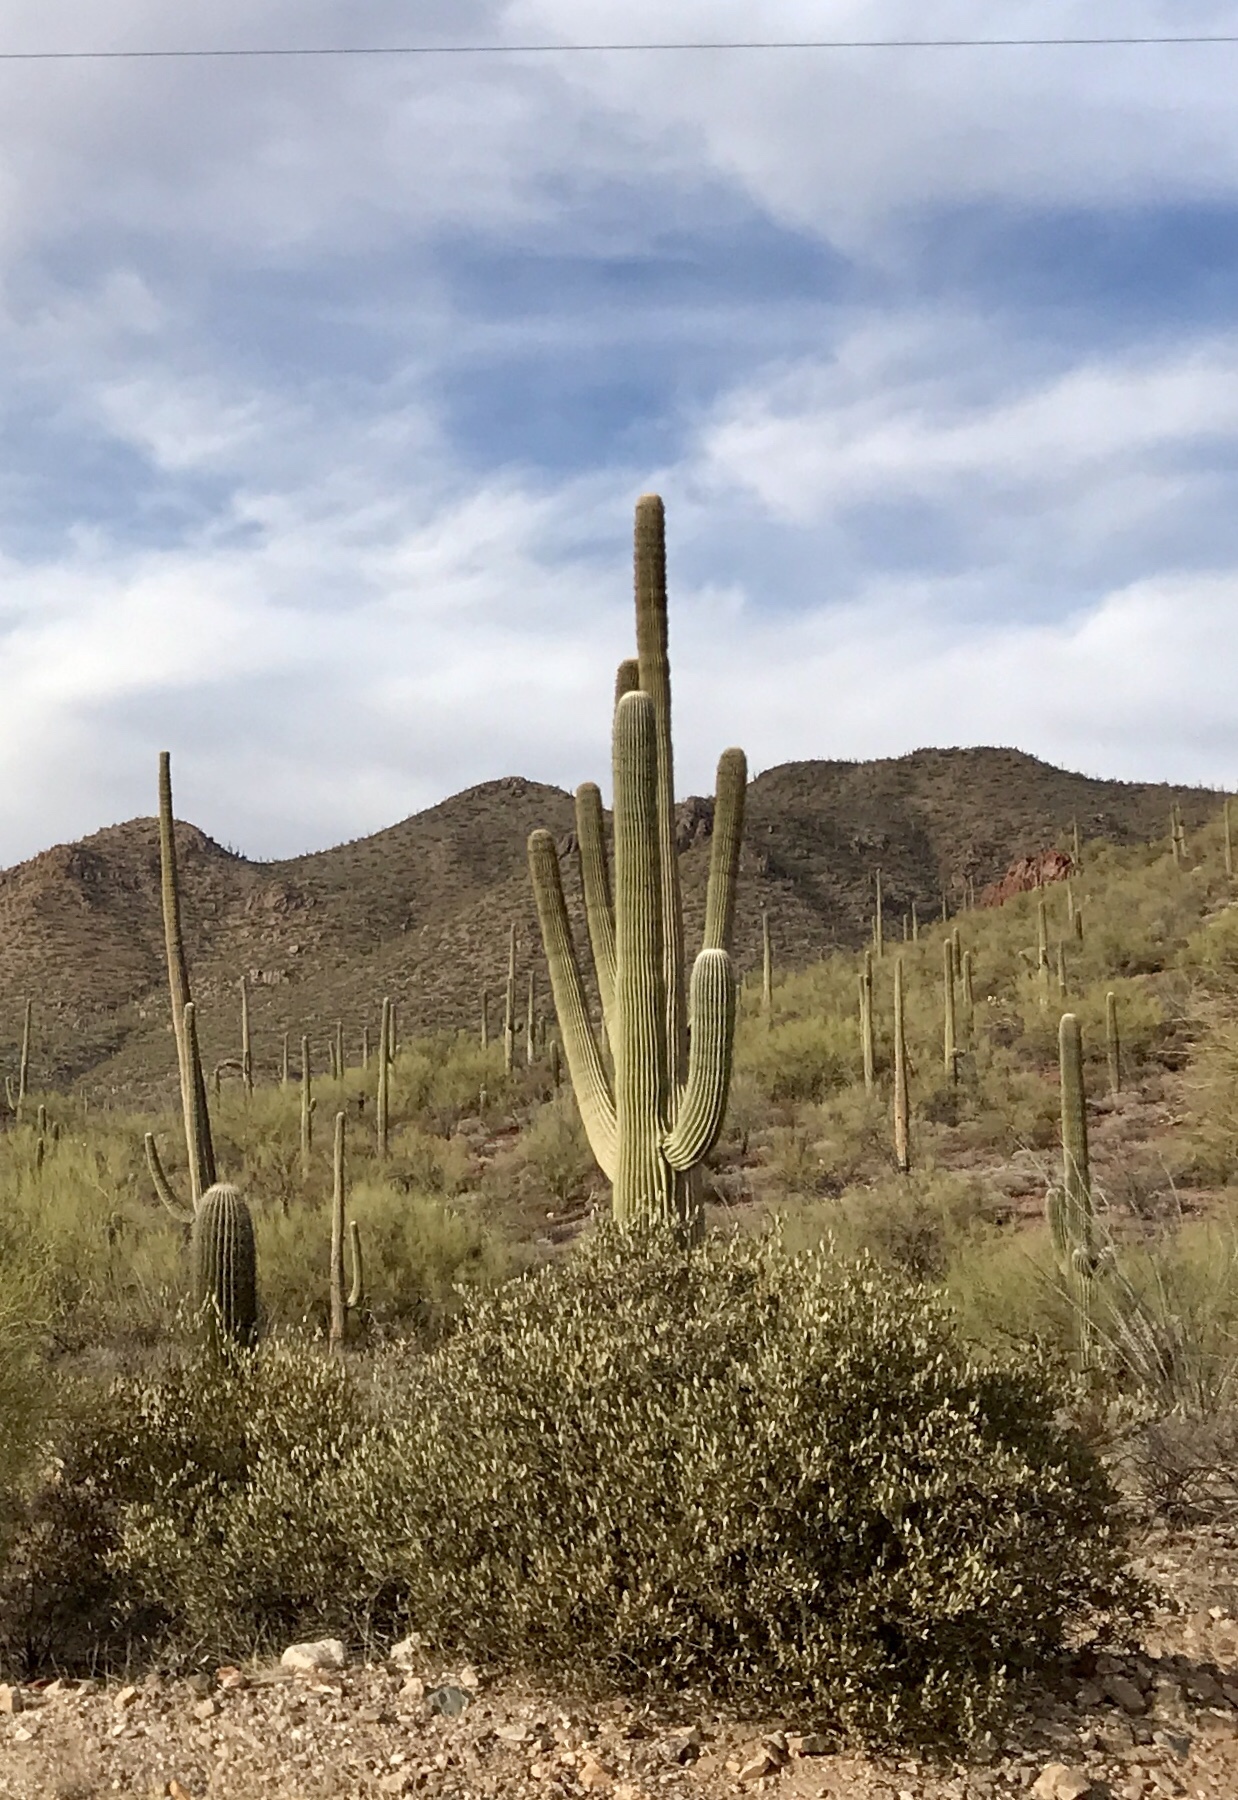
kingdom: Plantae
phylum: Tracheophyta
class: Magnoliopsida
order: Caryophyllales
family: Cactaceae
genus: Carnegiea
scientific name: Carnegiea gigantea
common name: Saguaro
